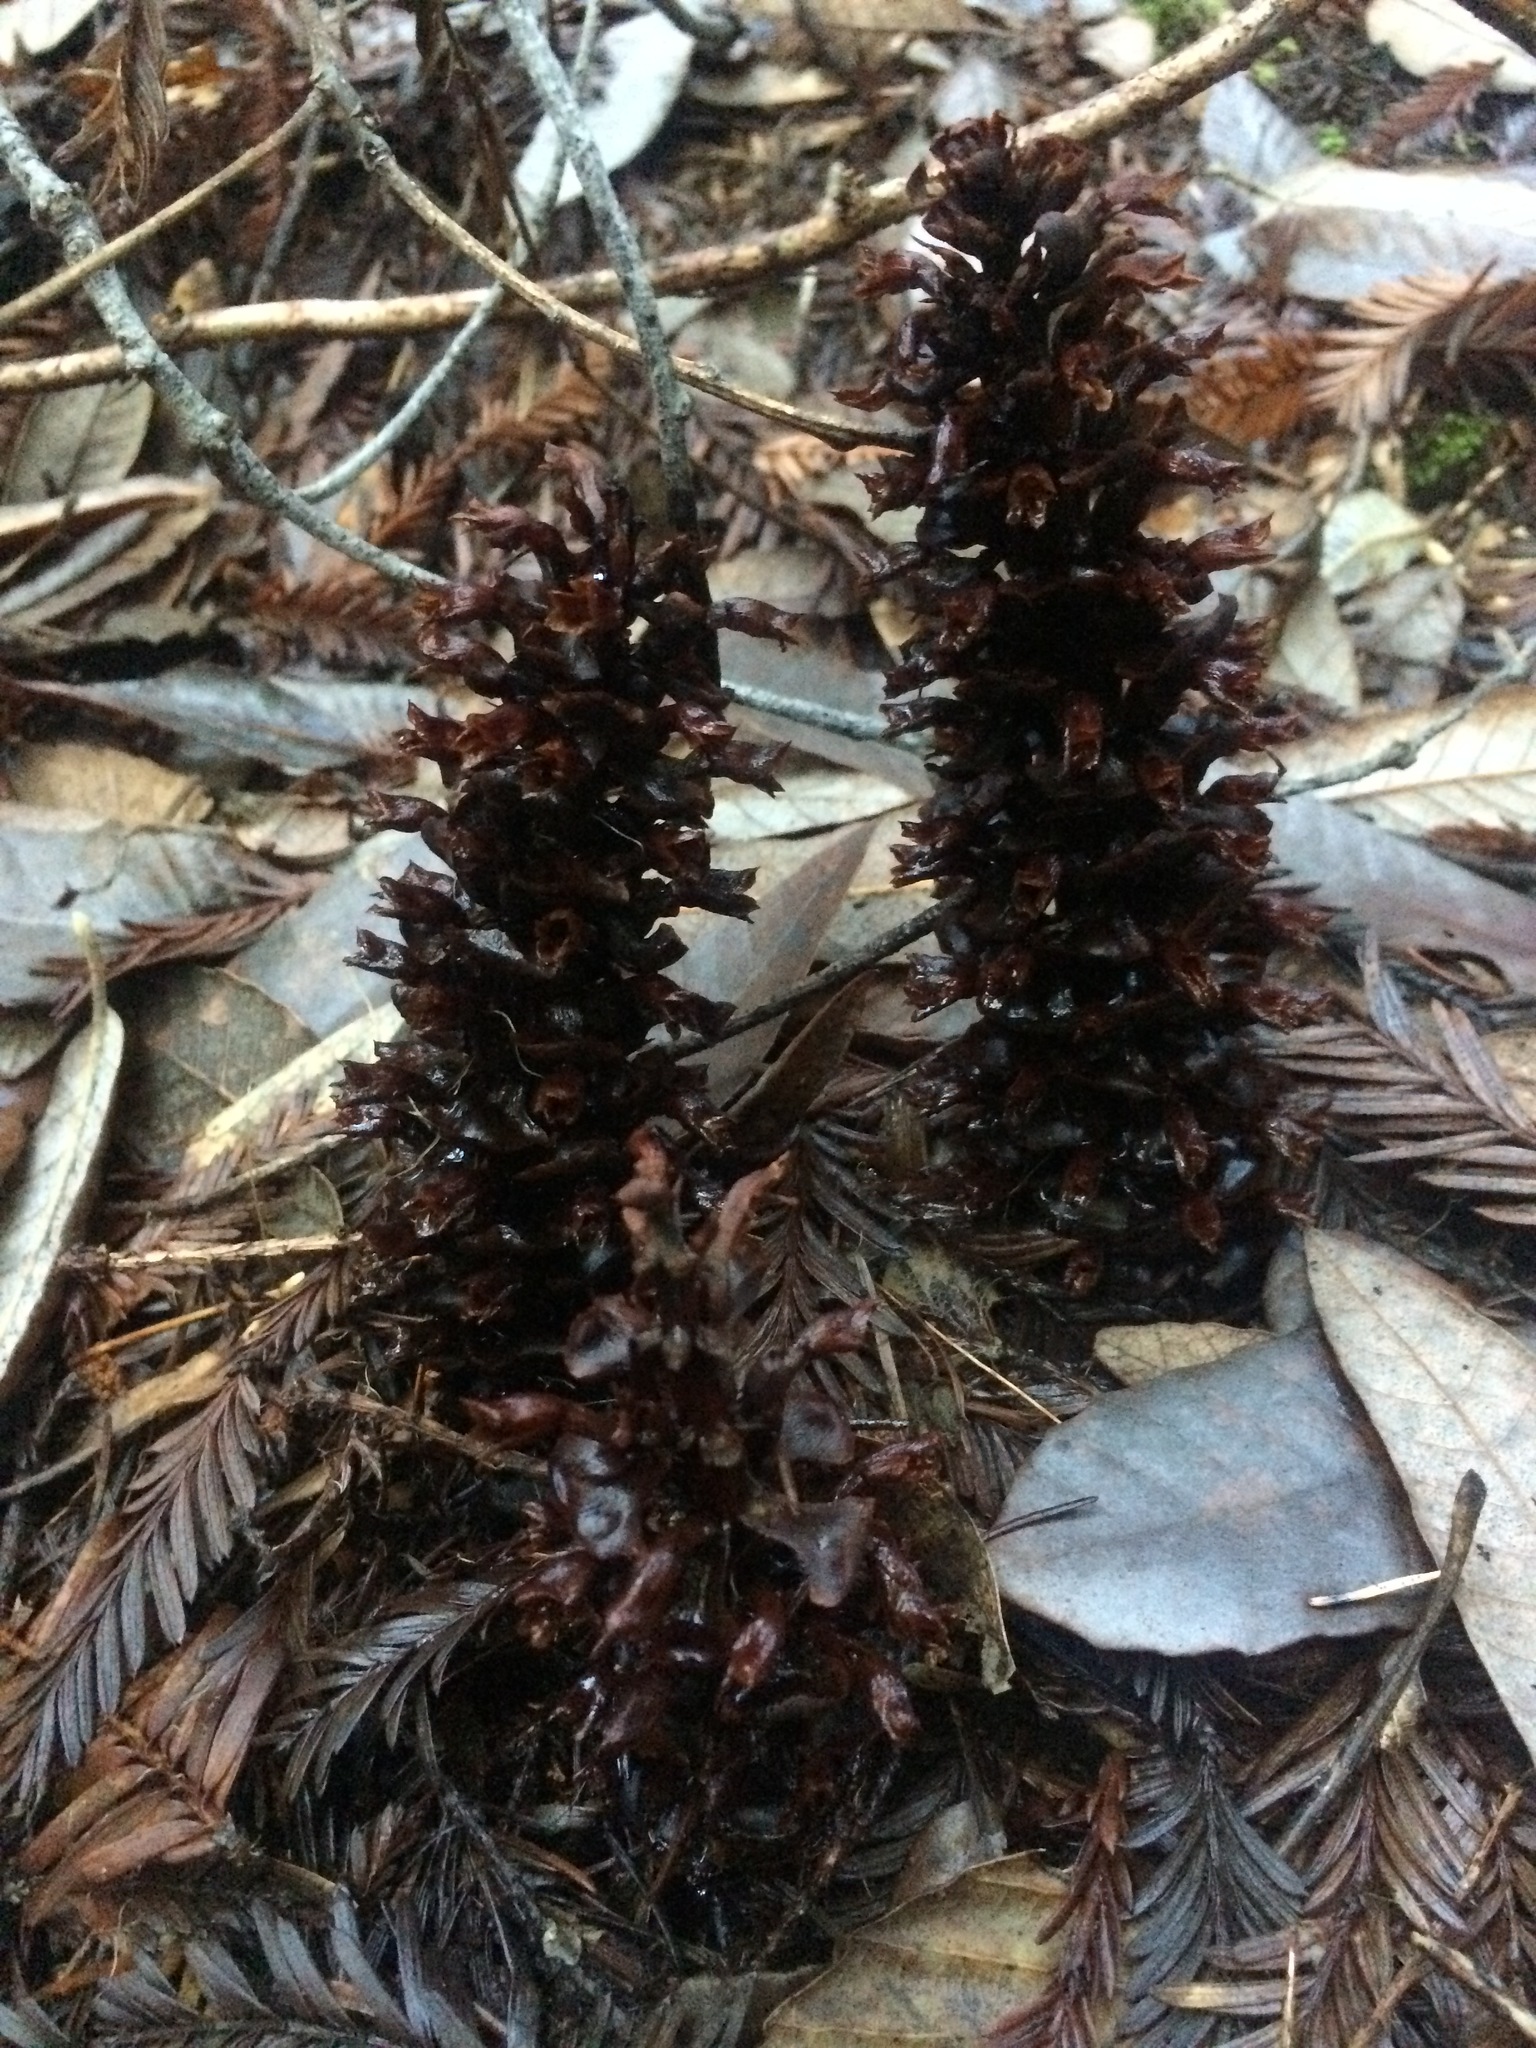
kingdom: Plantae
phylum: Tracheophyta
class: Magnoliopsida
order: Lamiales
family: Orobanchaceae
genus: Kopsiopsis
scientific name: Kopsiopsis strobilacea
